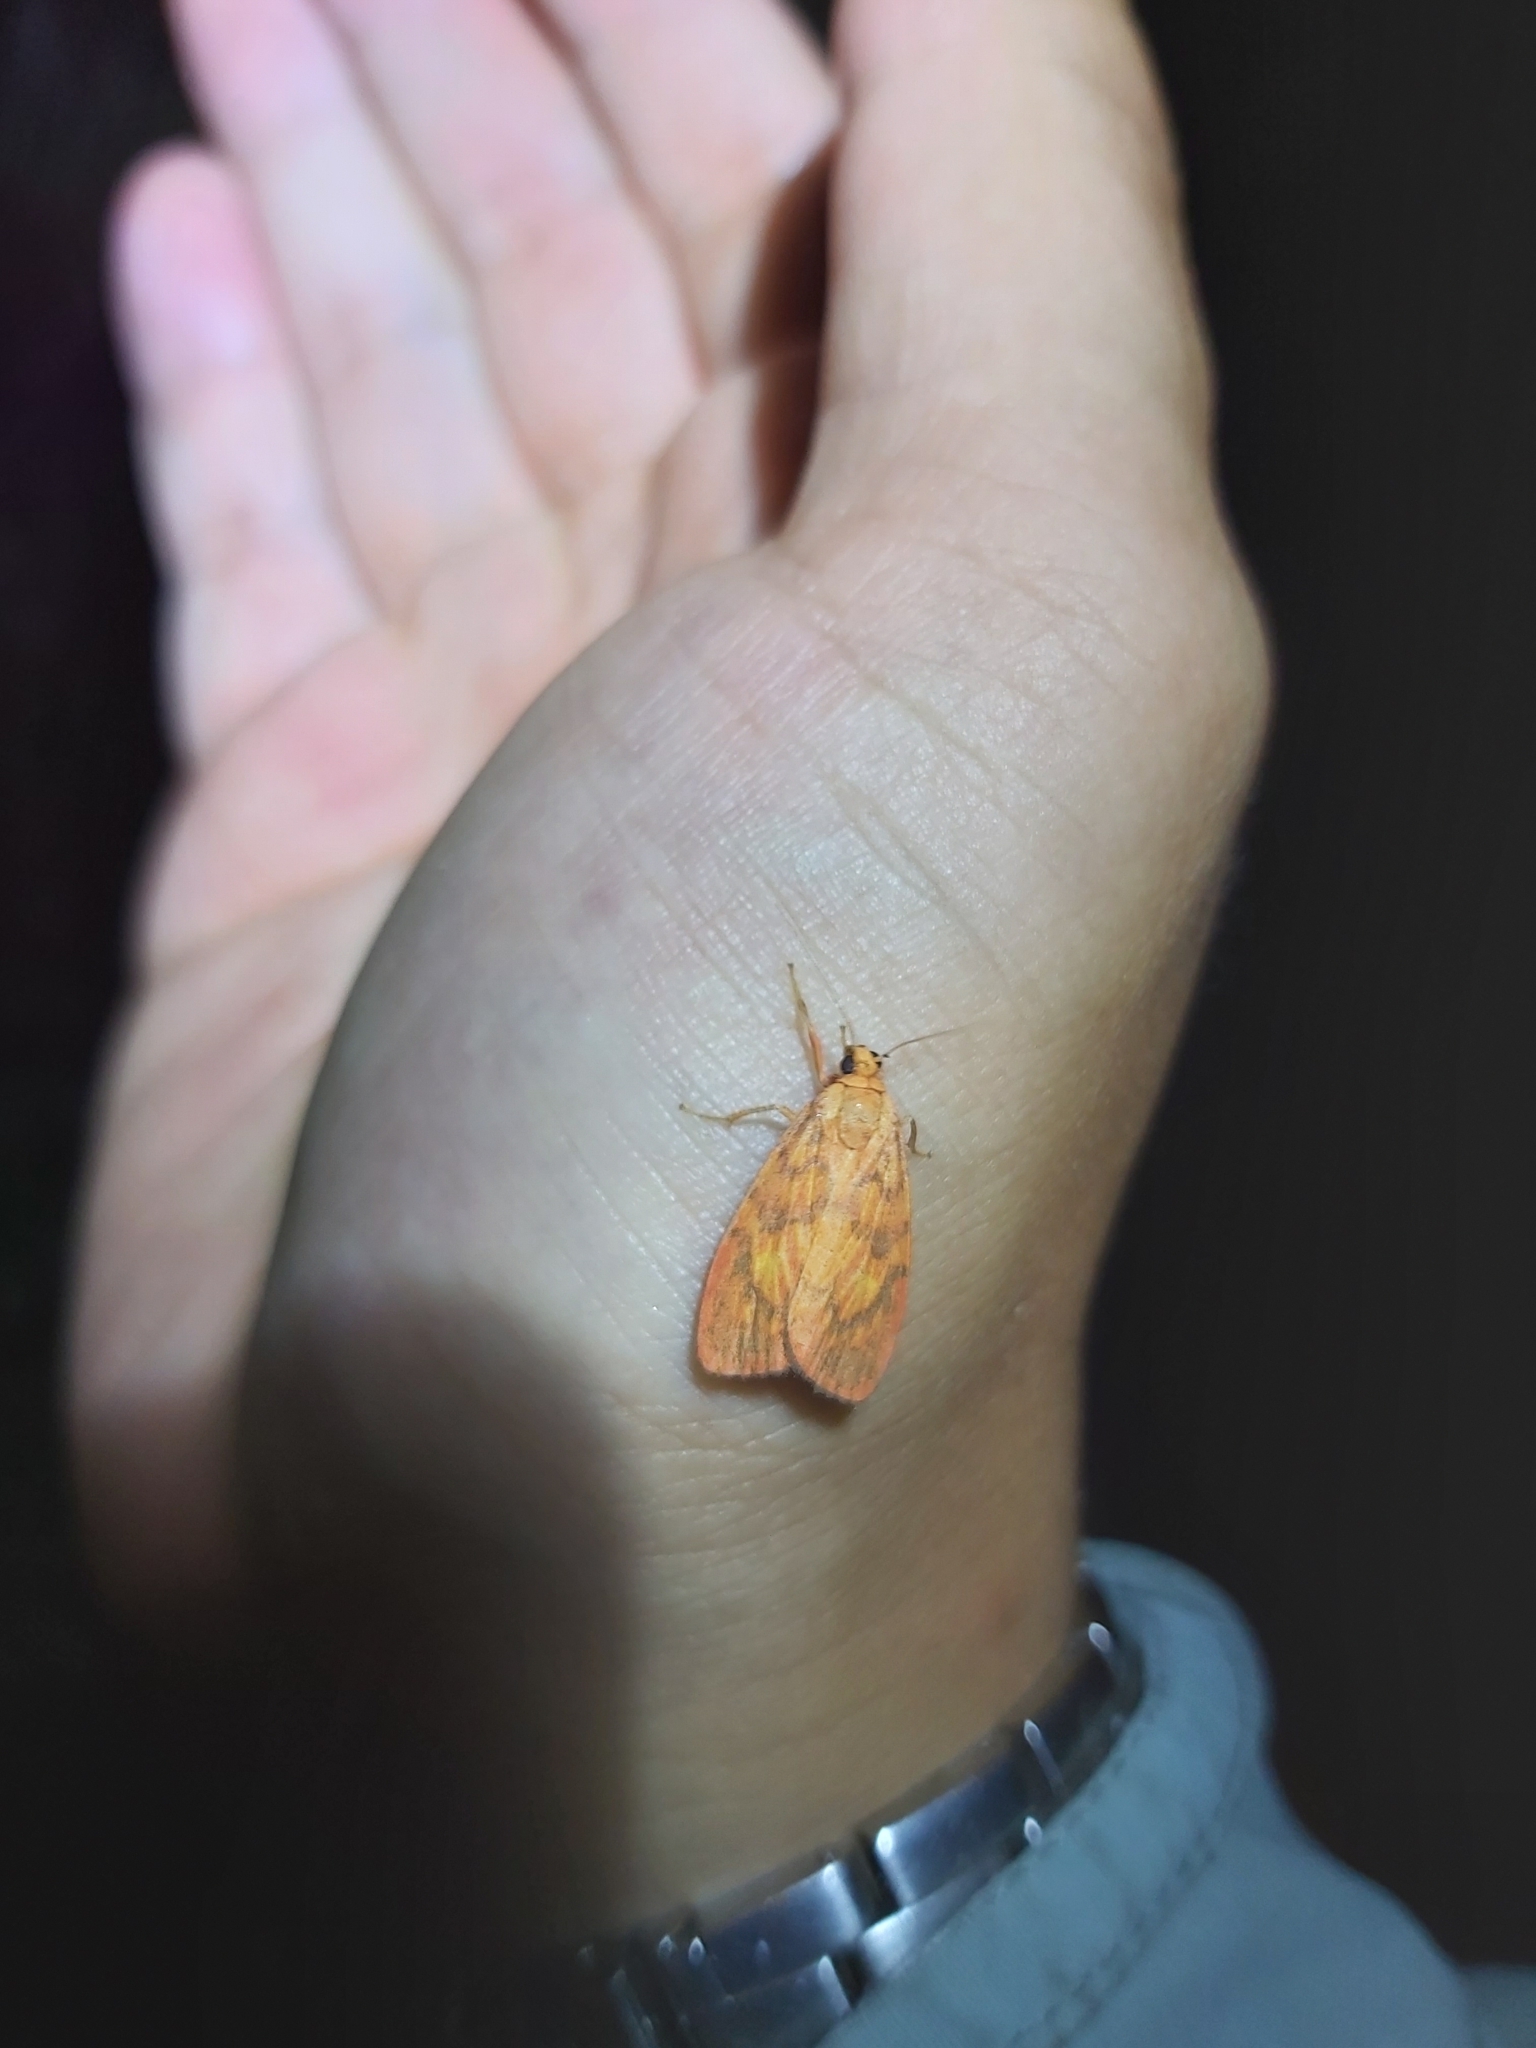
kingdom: Animalia
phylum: Arthropoda
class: Insecta
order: Lepidoptera
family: Erebidae
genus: Cyme
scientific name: Cyme pyraula
